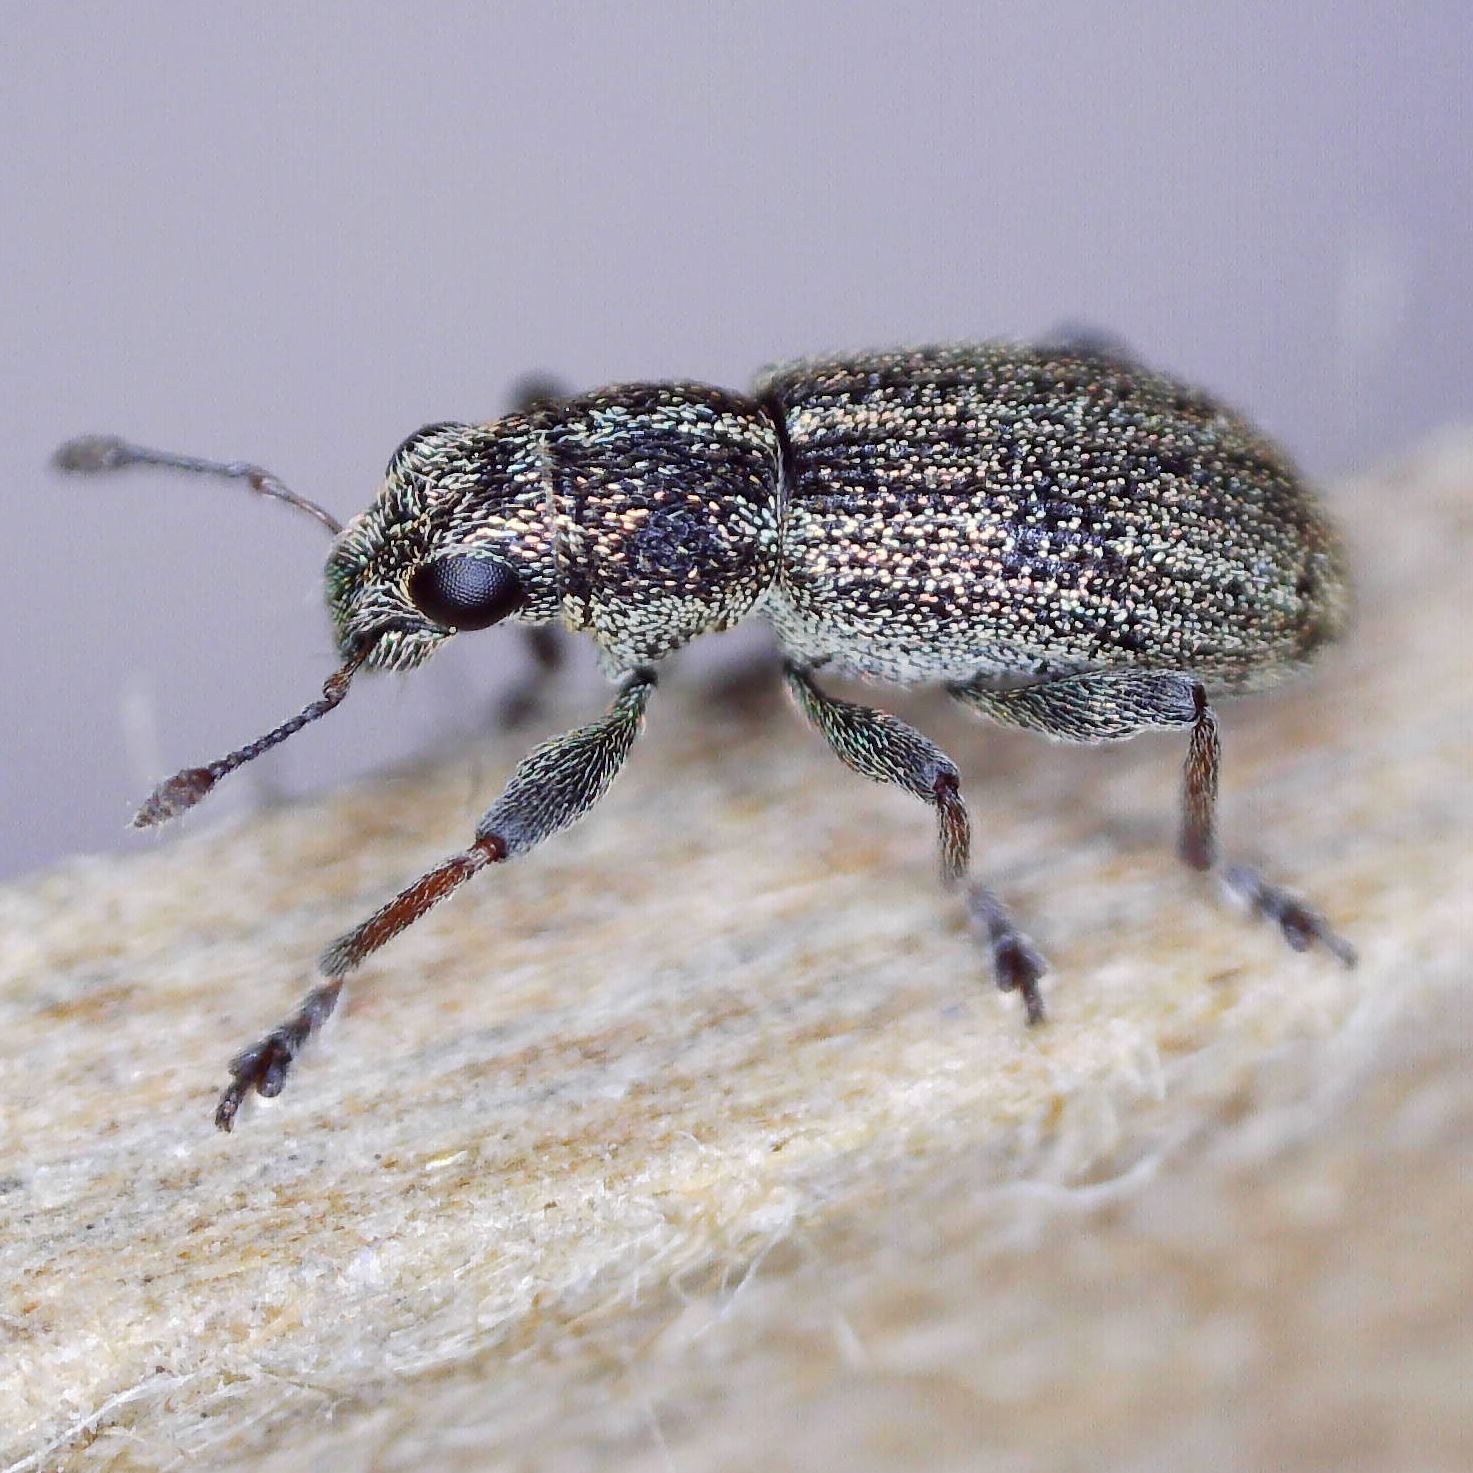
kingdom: Animalia
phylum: Arthropoda
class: Insecta
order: Coleoptera
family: Curculionidae
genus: Sitona
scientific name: Sitona striatellus
